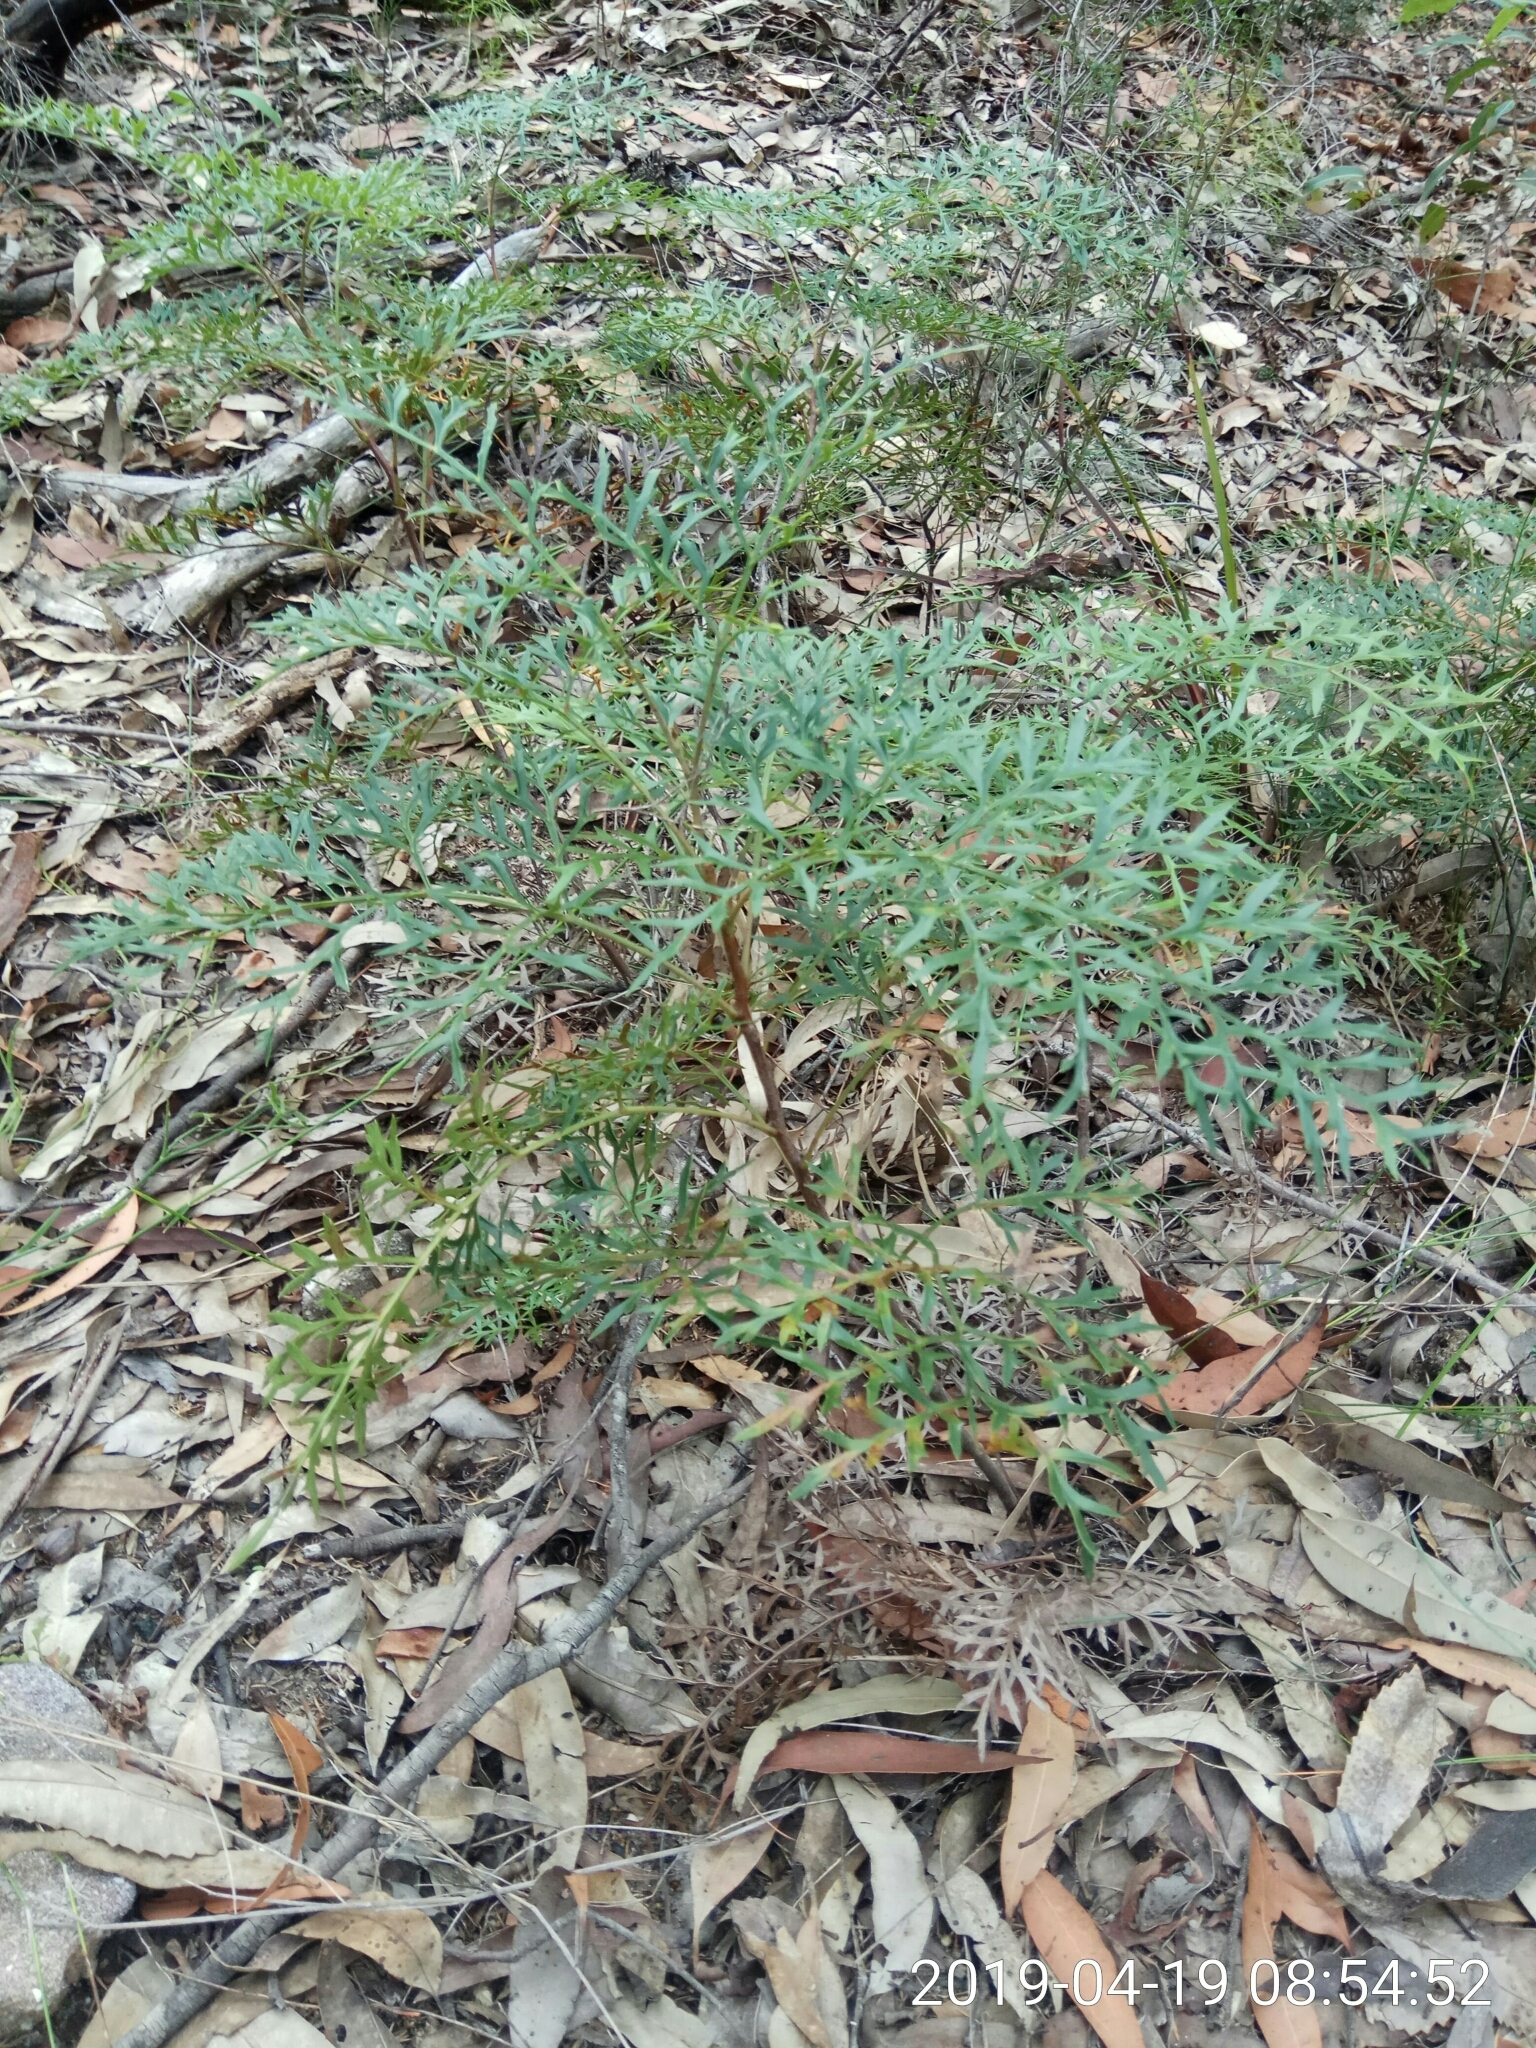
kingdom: Plantae
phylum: Tracheophyta
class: Magnoliopsida
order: Proteales
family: Proteaceae
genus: Lomatia
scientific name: Lomatia silaifolia
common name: Crinklebush
